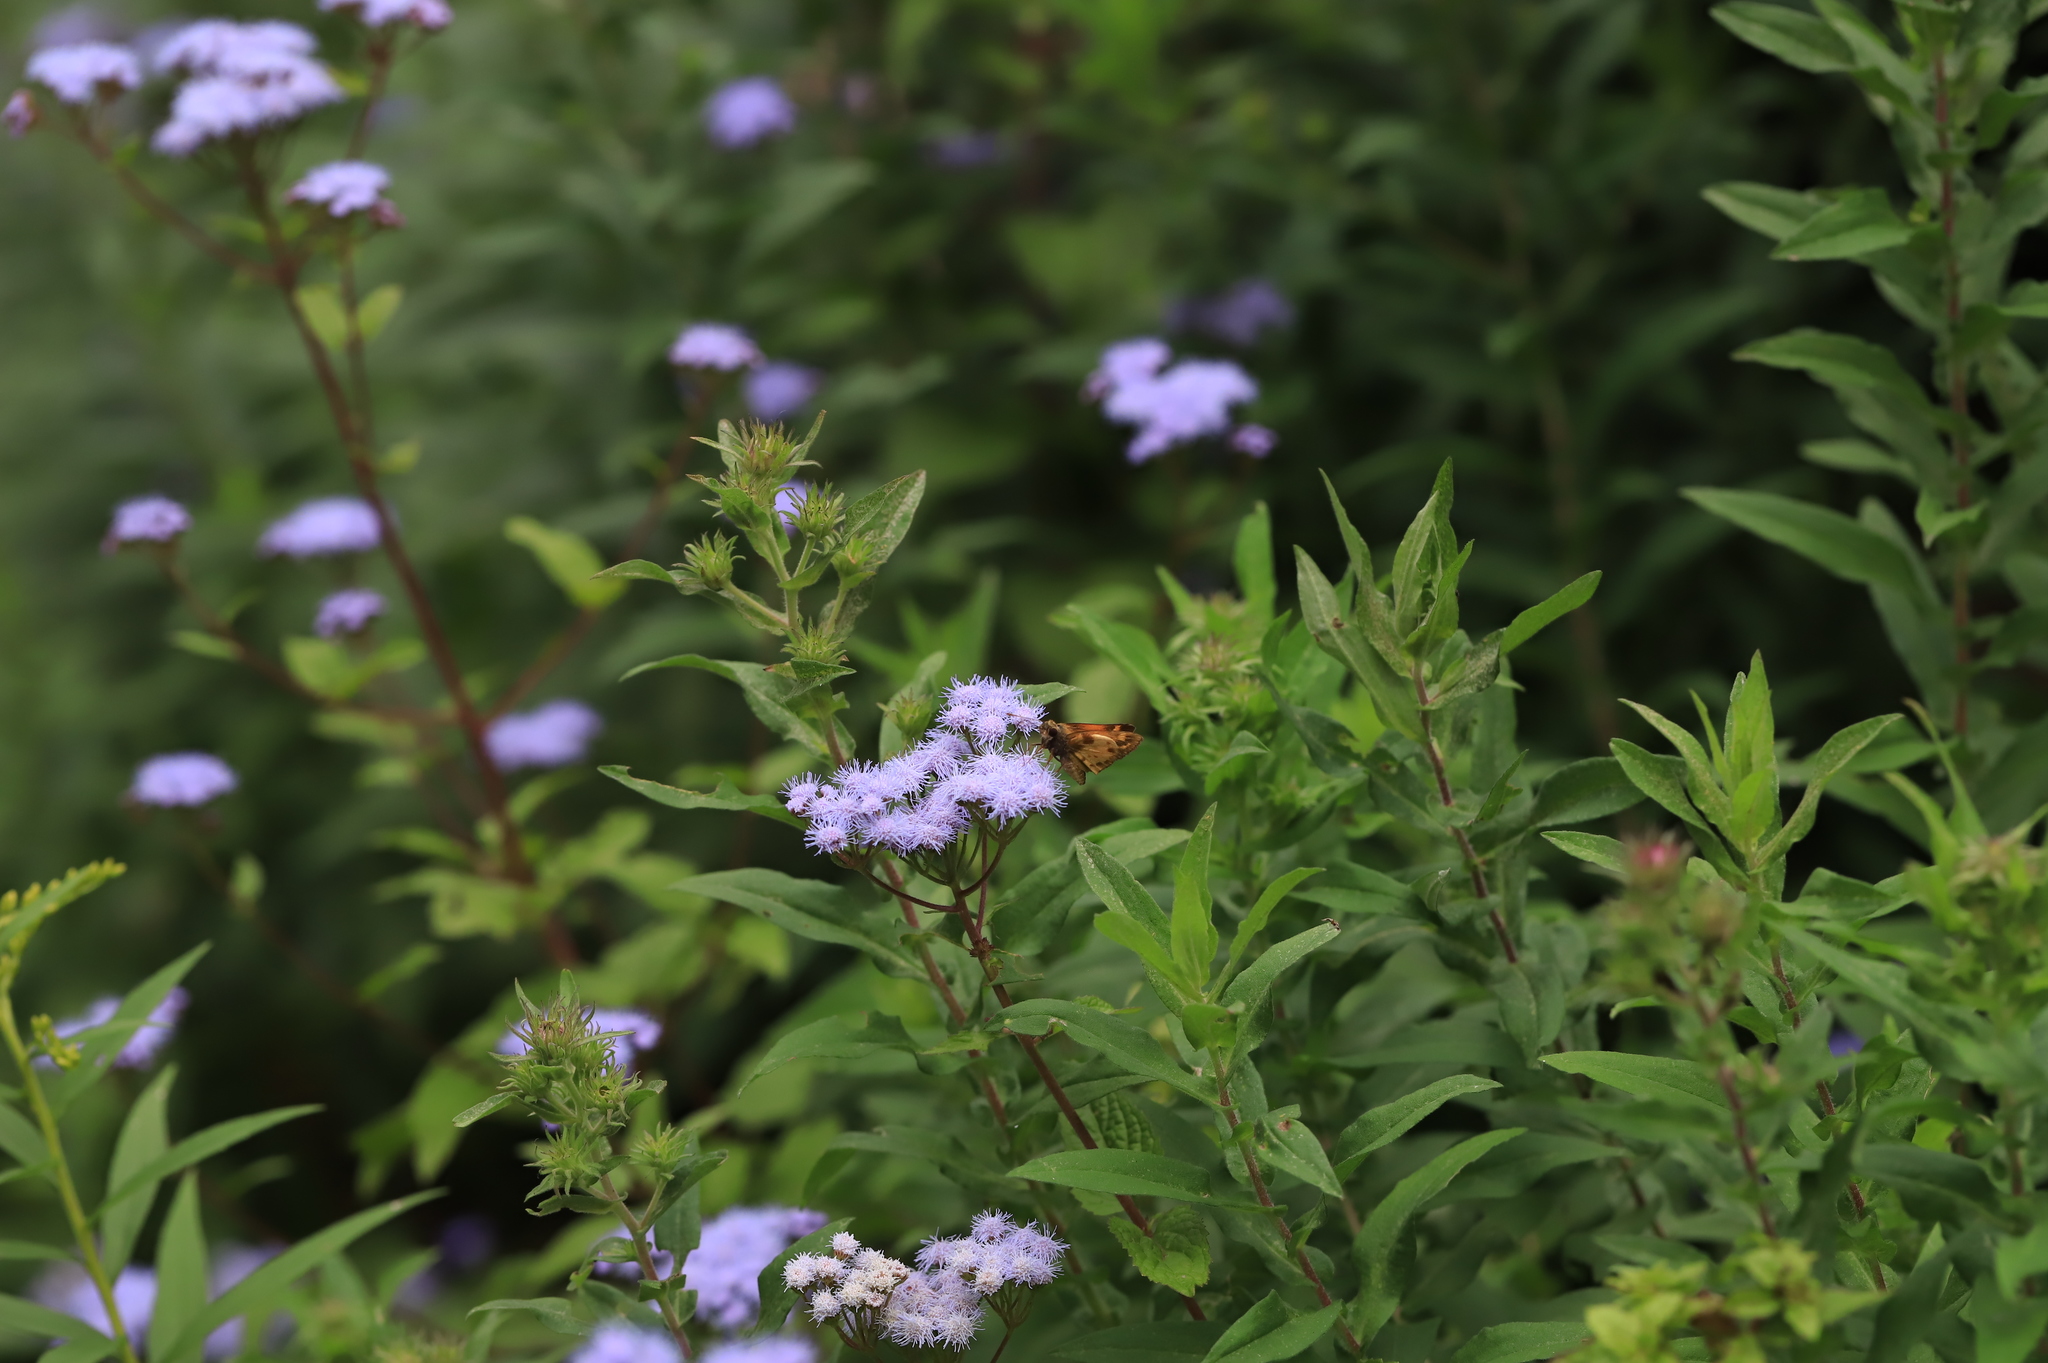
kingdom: Animalia
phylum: Arthropoda
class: Insecta
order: Lepidoptera
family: Hesperiidae
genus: Lon
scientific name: Lon zabulon
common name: Zabulon skipper
